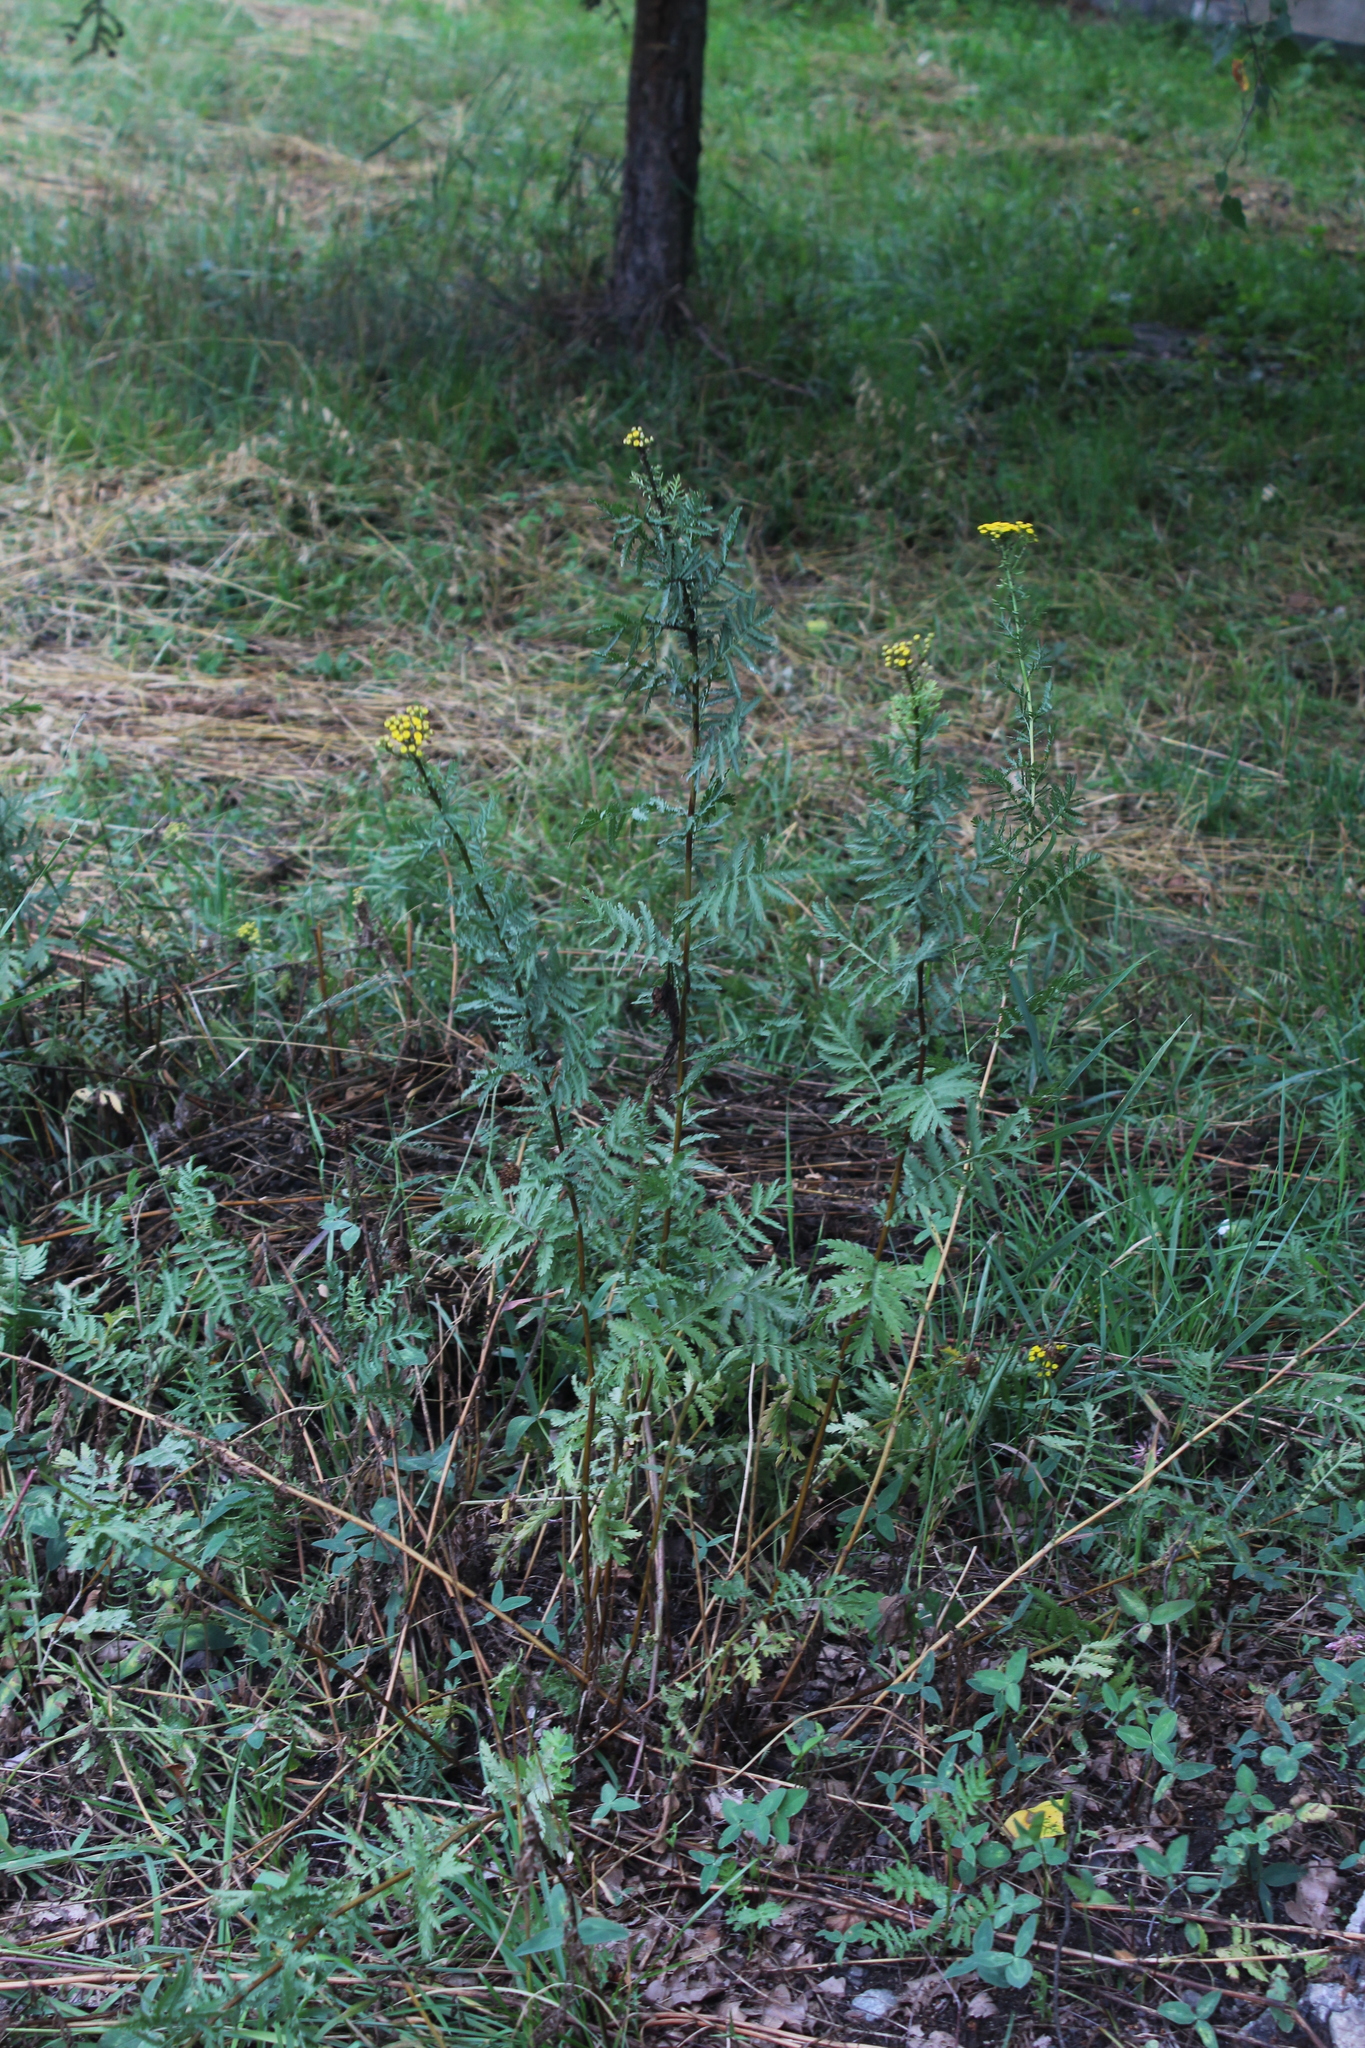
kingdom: Plantae
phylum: Tracheophyta
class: Magnoliopsida
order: Asterales
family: Asteraceae
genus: Tanacetum
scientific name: Tanacetum vulgare
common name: Common tansy
